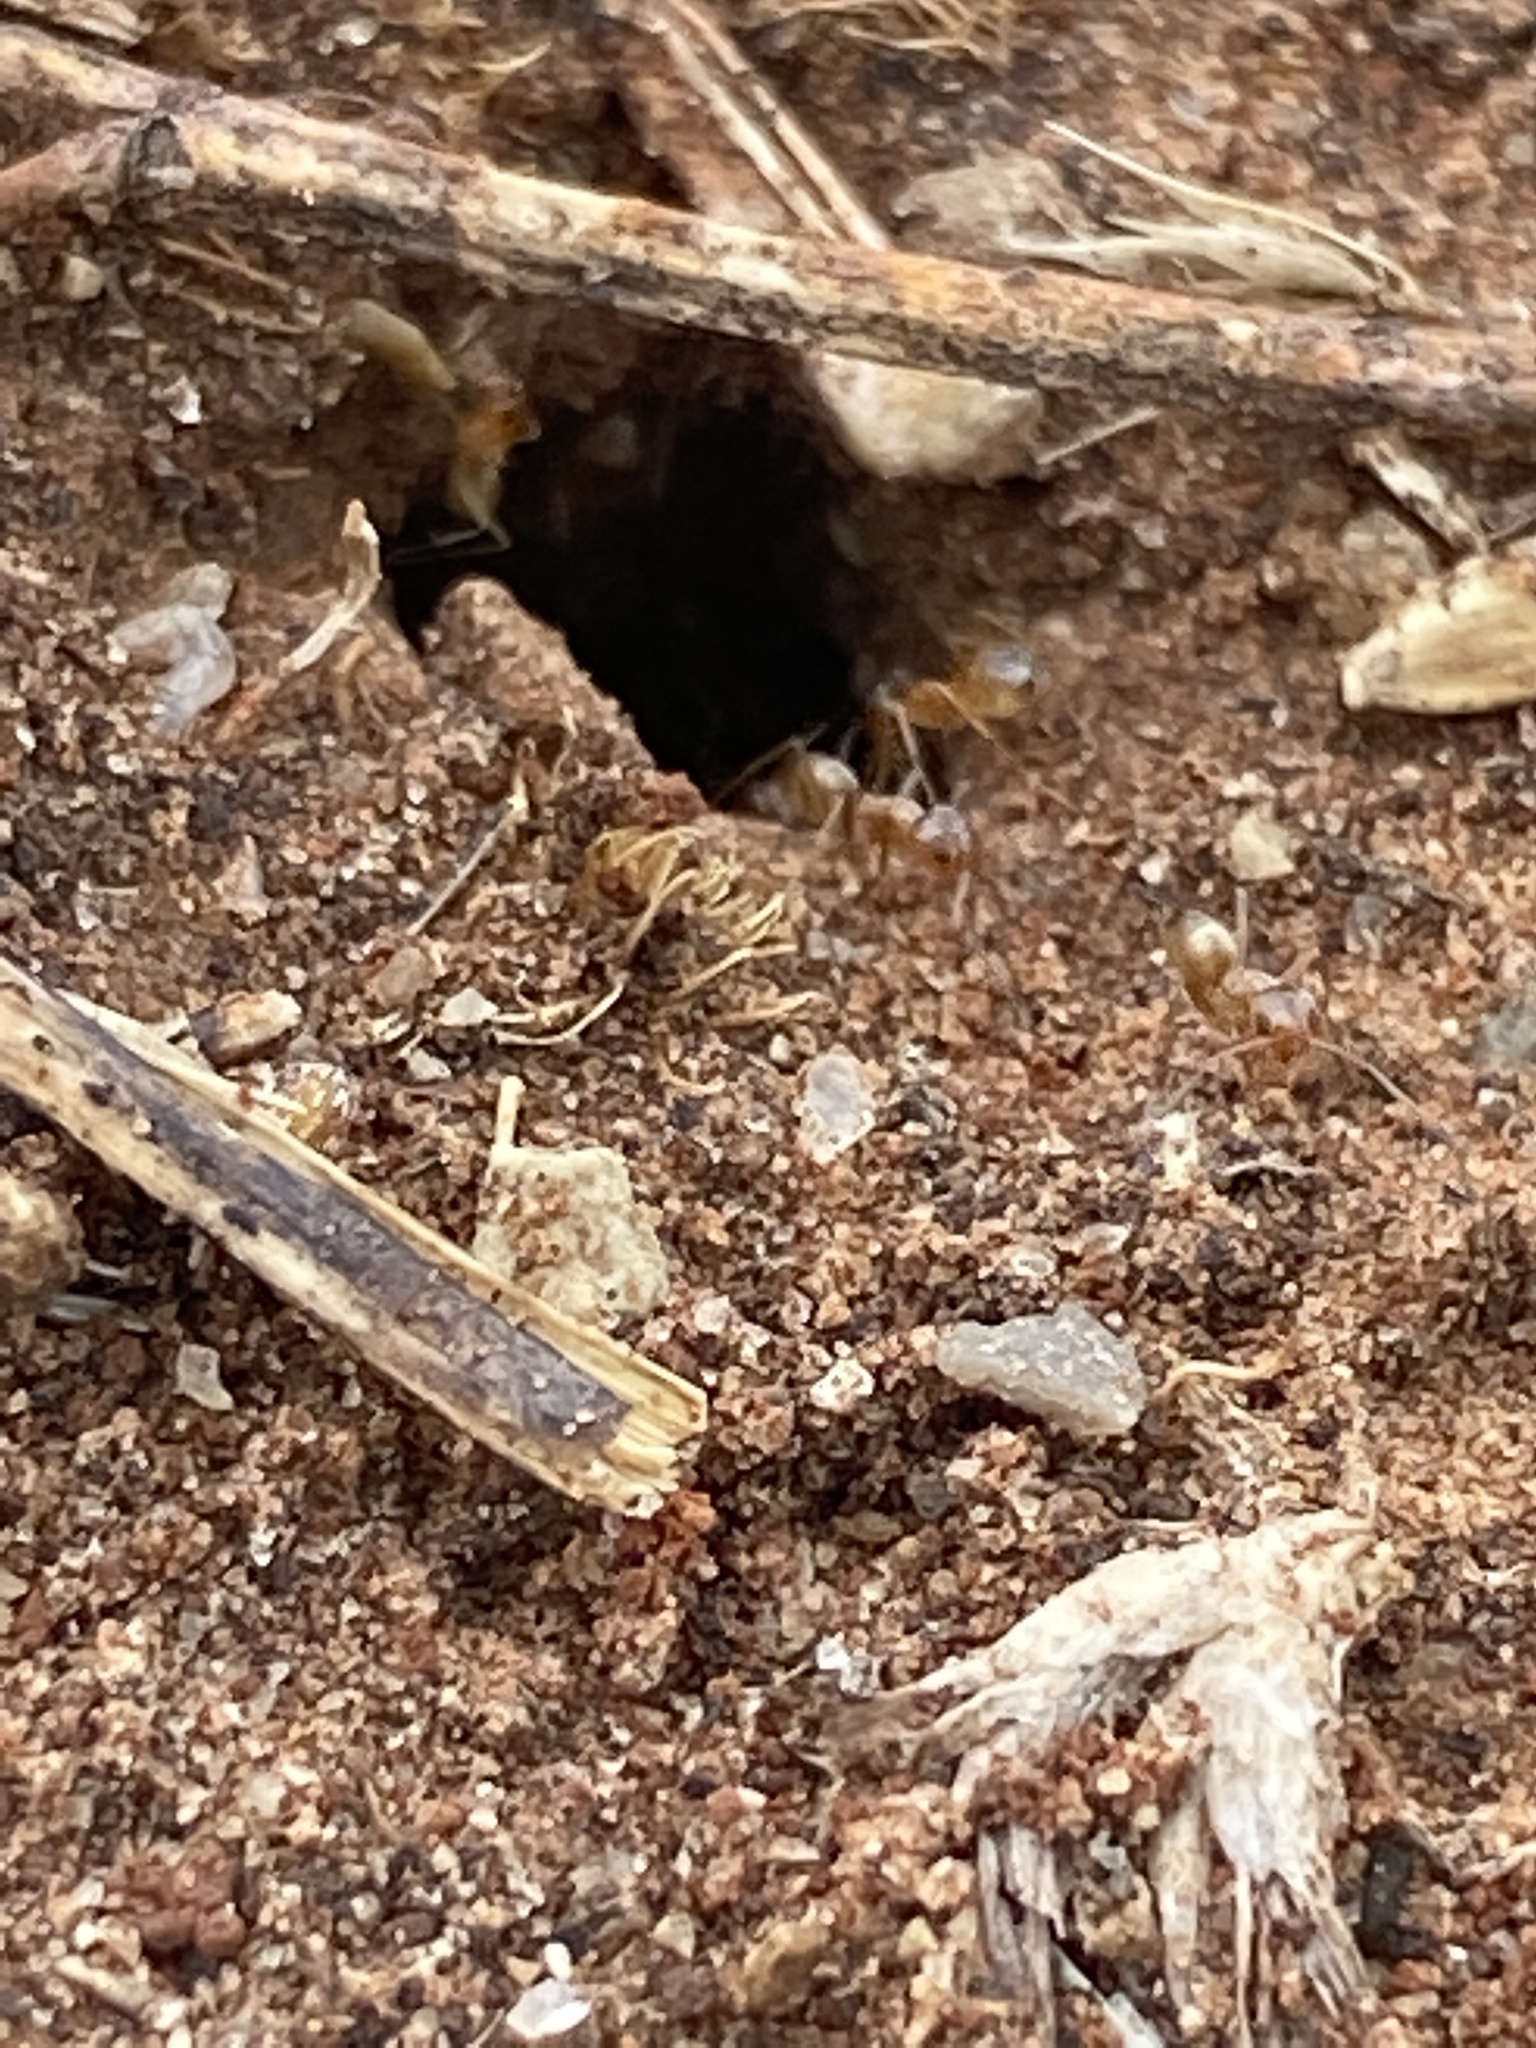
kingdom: Animalia
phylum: Arthropoda
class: Insecta
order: Hymenoptera
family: Formicidae
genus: Dorymyrmex
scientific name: Dorymyrmex flavus
